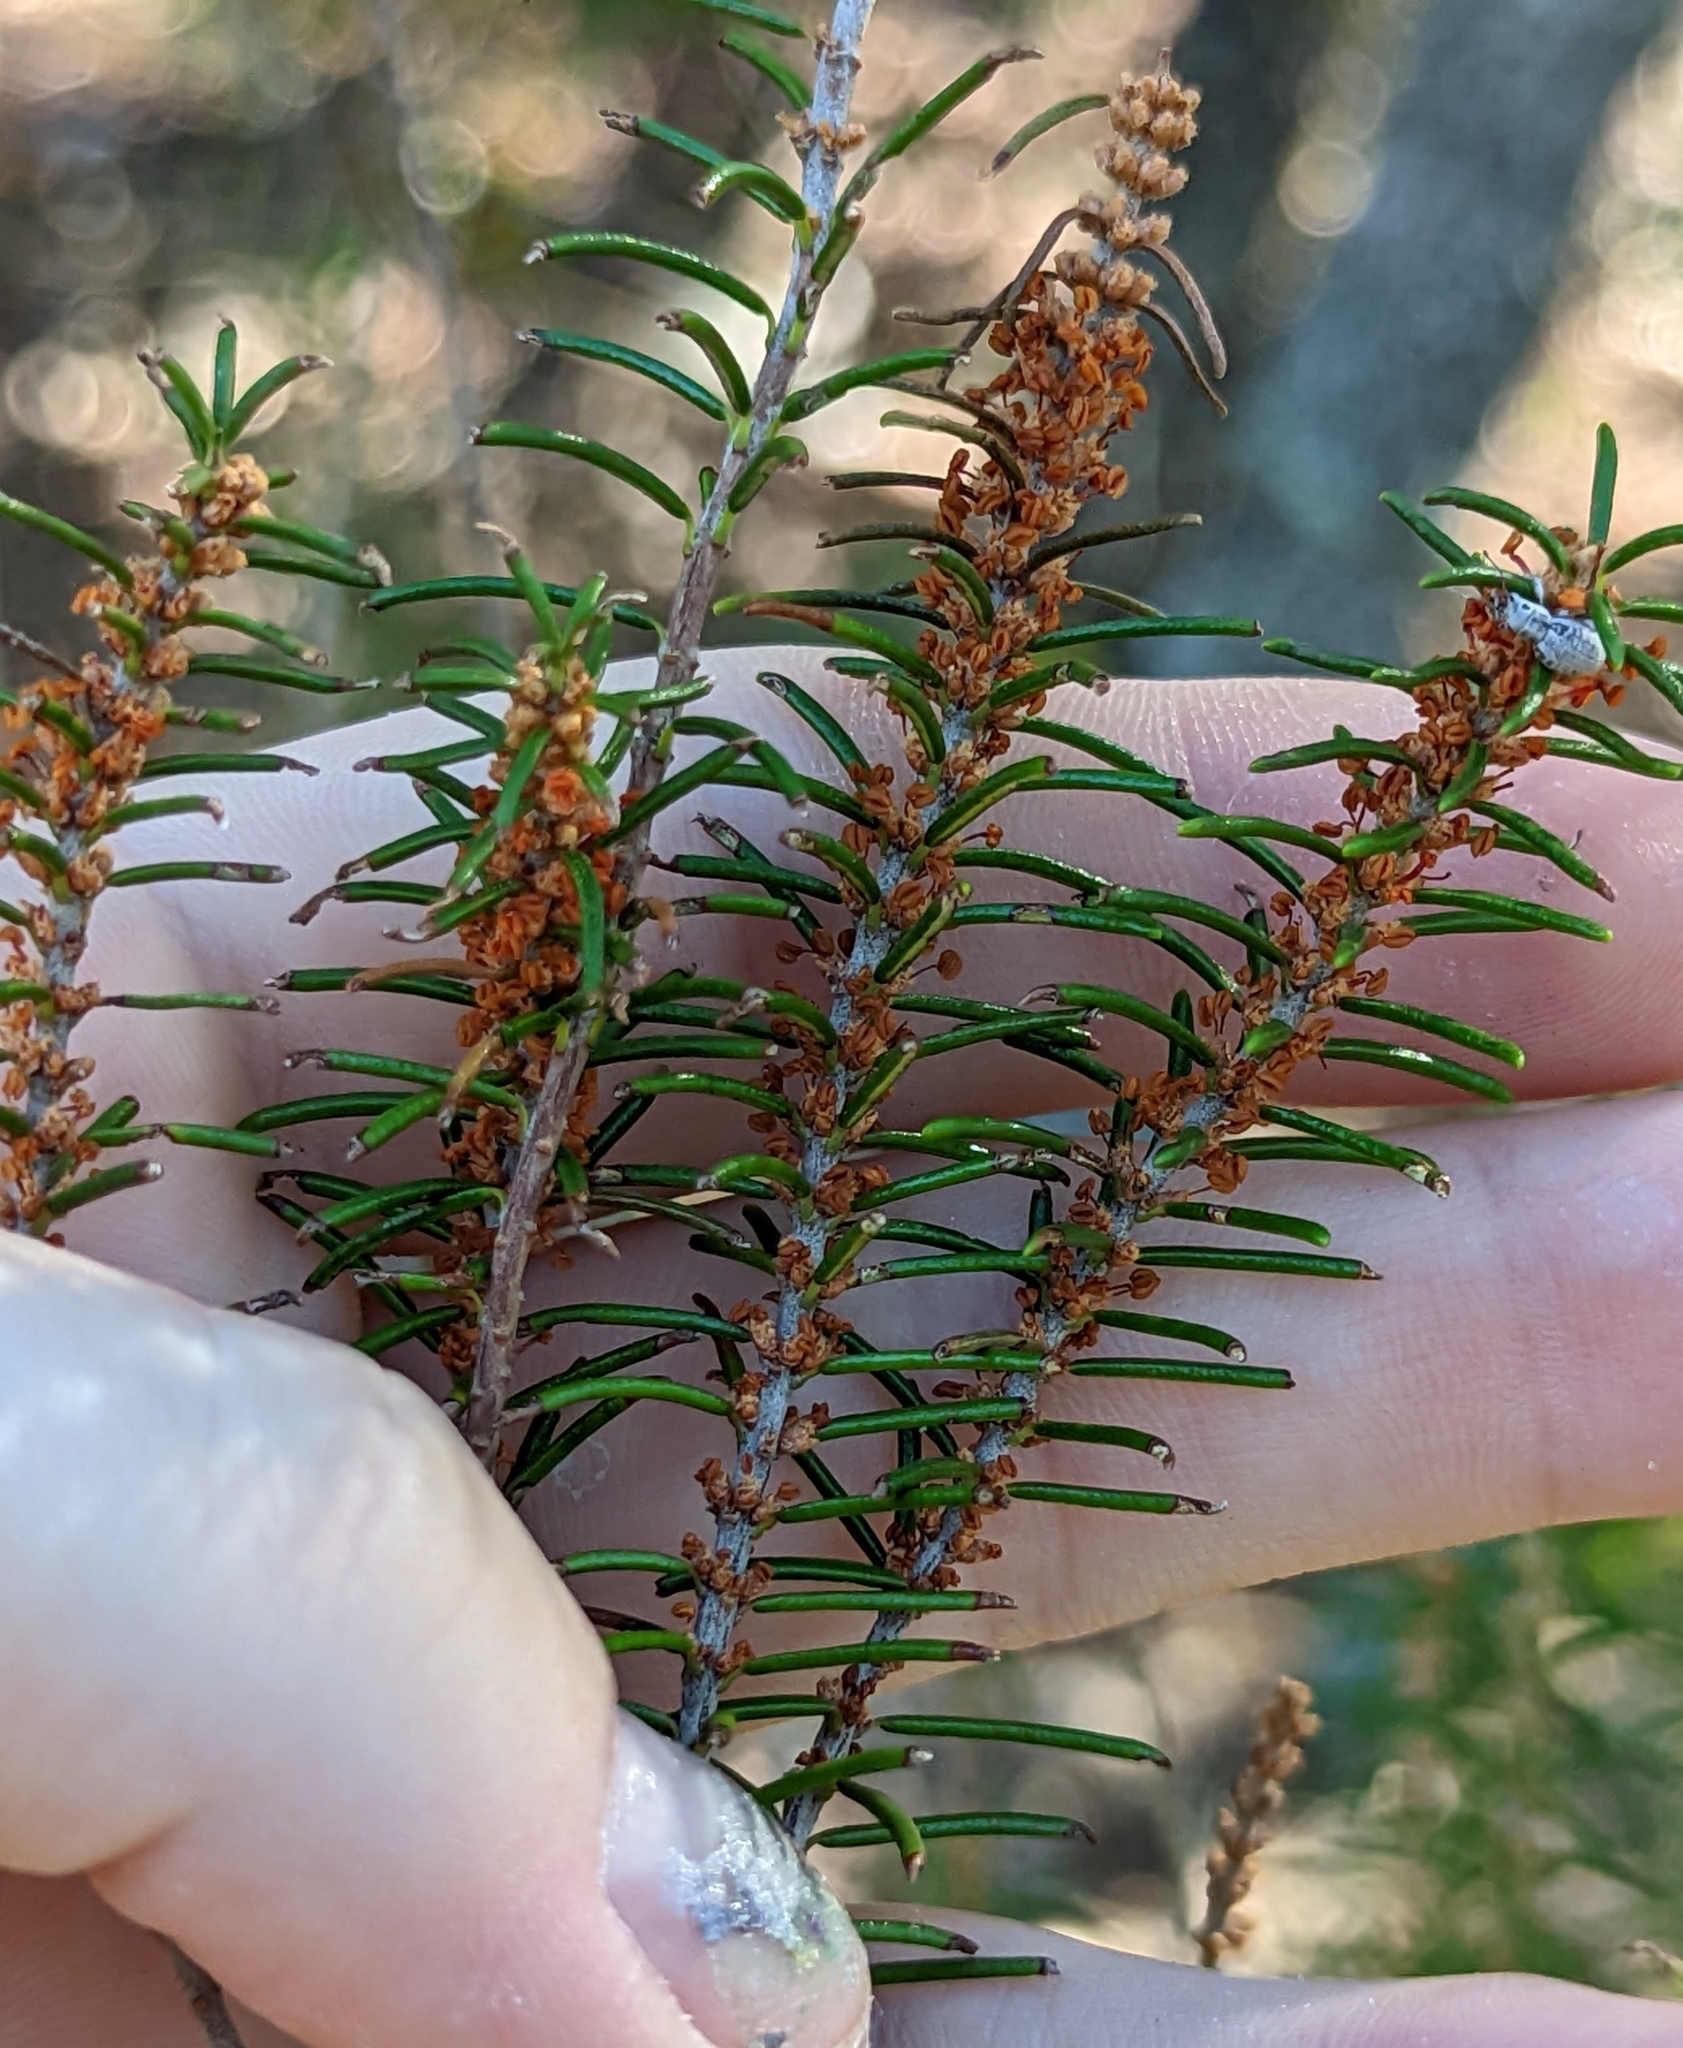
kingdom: Plantae
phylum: Tracheophyta
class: Magnoliopsida
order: Ericales
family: Ericaceae
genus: Ceratiola
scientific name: Ceratiola ericoides
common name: Sandhill-rosemary
